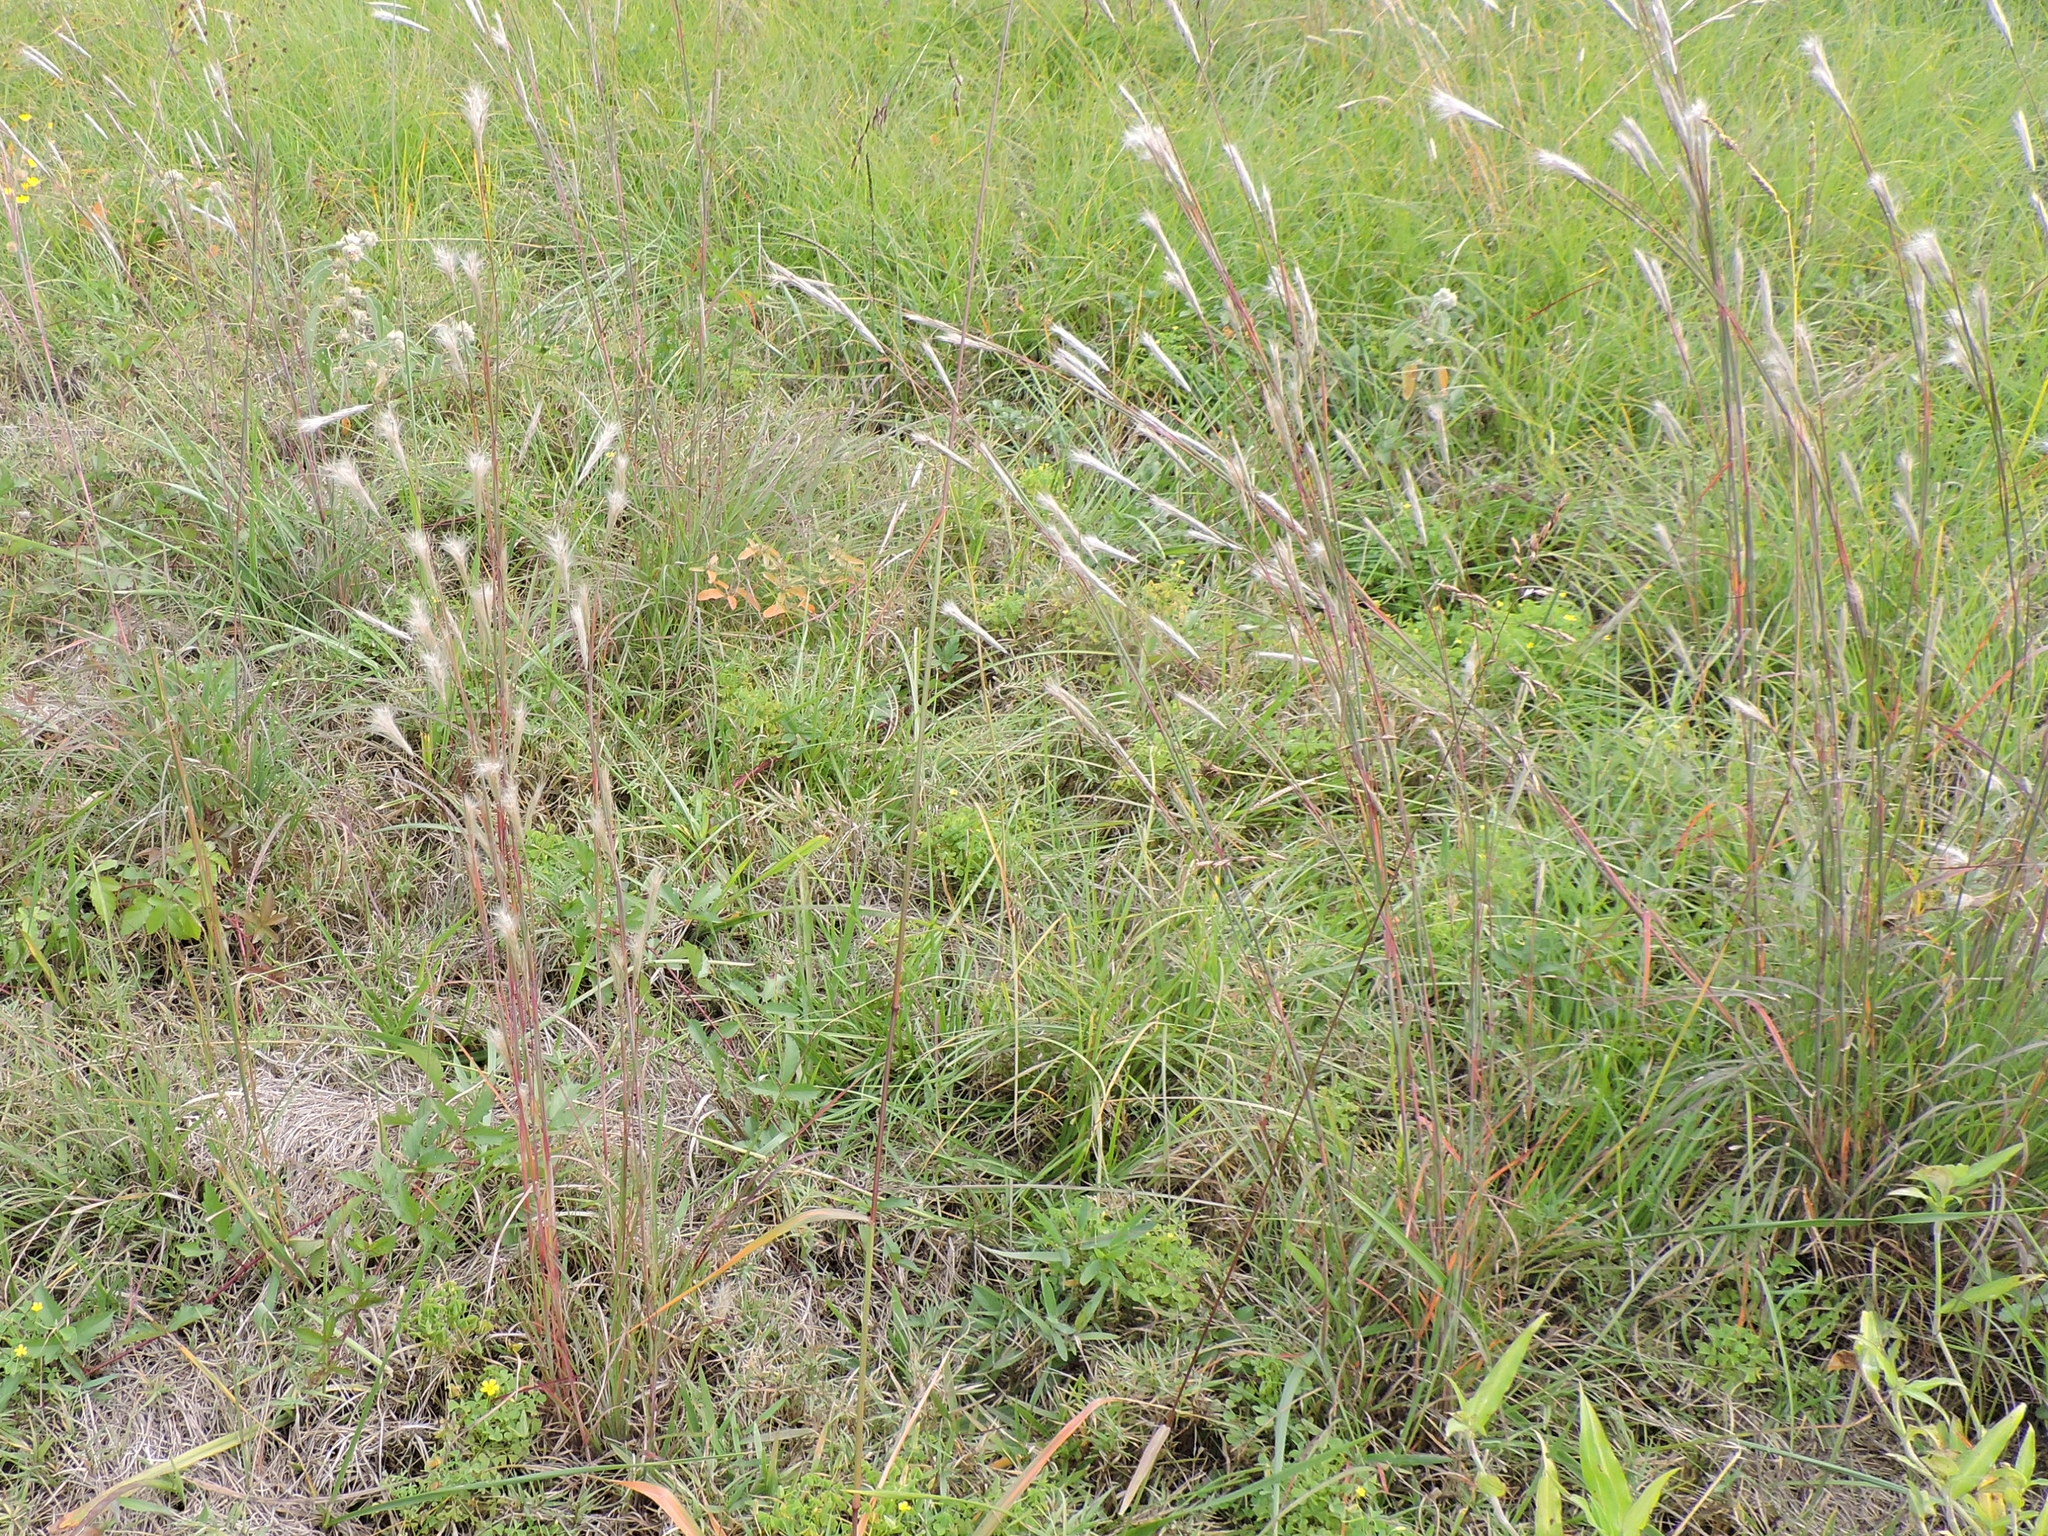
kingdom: Plantae
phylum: Tracheophyta
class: Liliopsida
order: Poales
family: Poaceae
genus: Andropogon
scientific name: Andropogon ternarius
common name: Split bluestem
